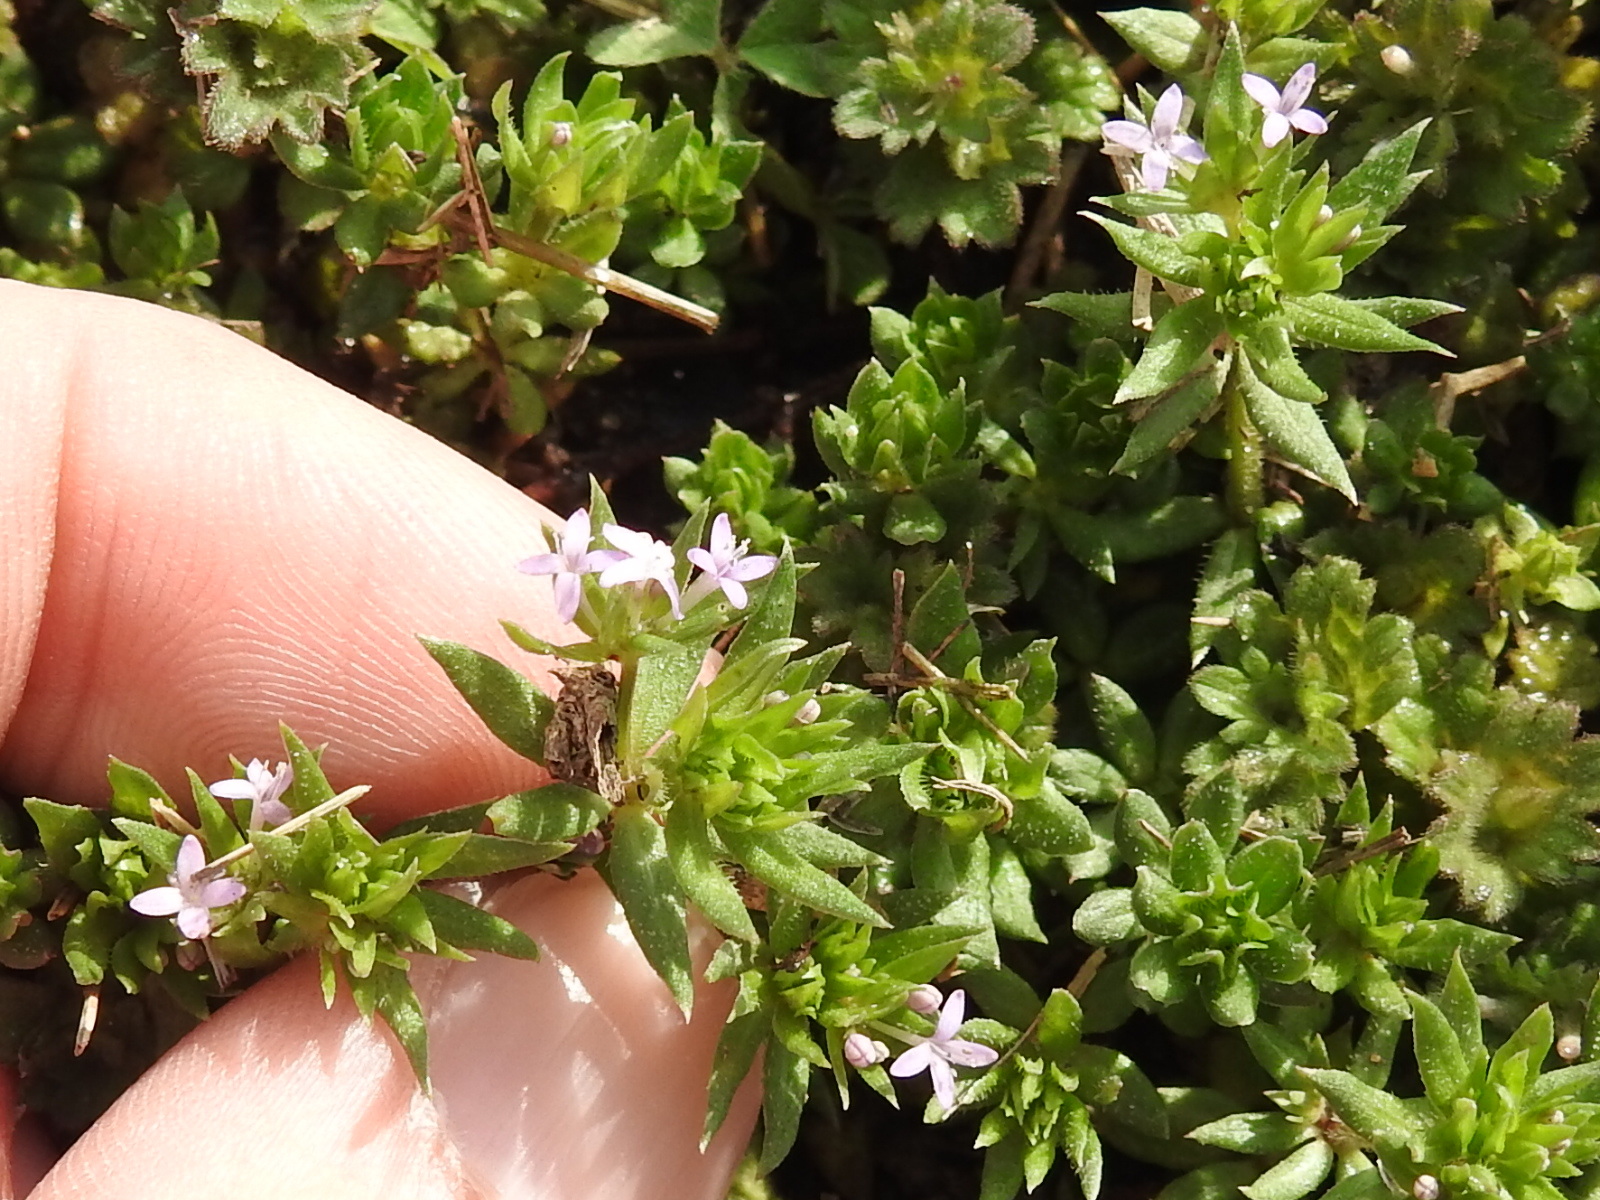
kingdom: Plantae
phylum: Tracheophyta
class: Magnoliopsida
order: Gentianales
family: Rubiaceae
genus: Sherardia
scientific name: Sherardia arvensis
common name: Field madder
